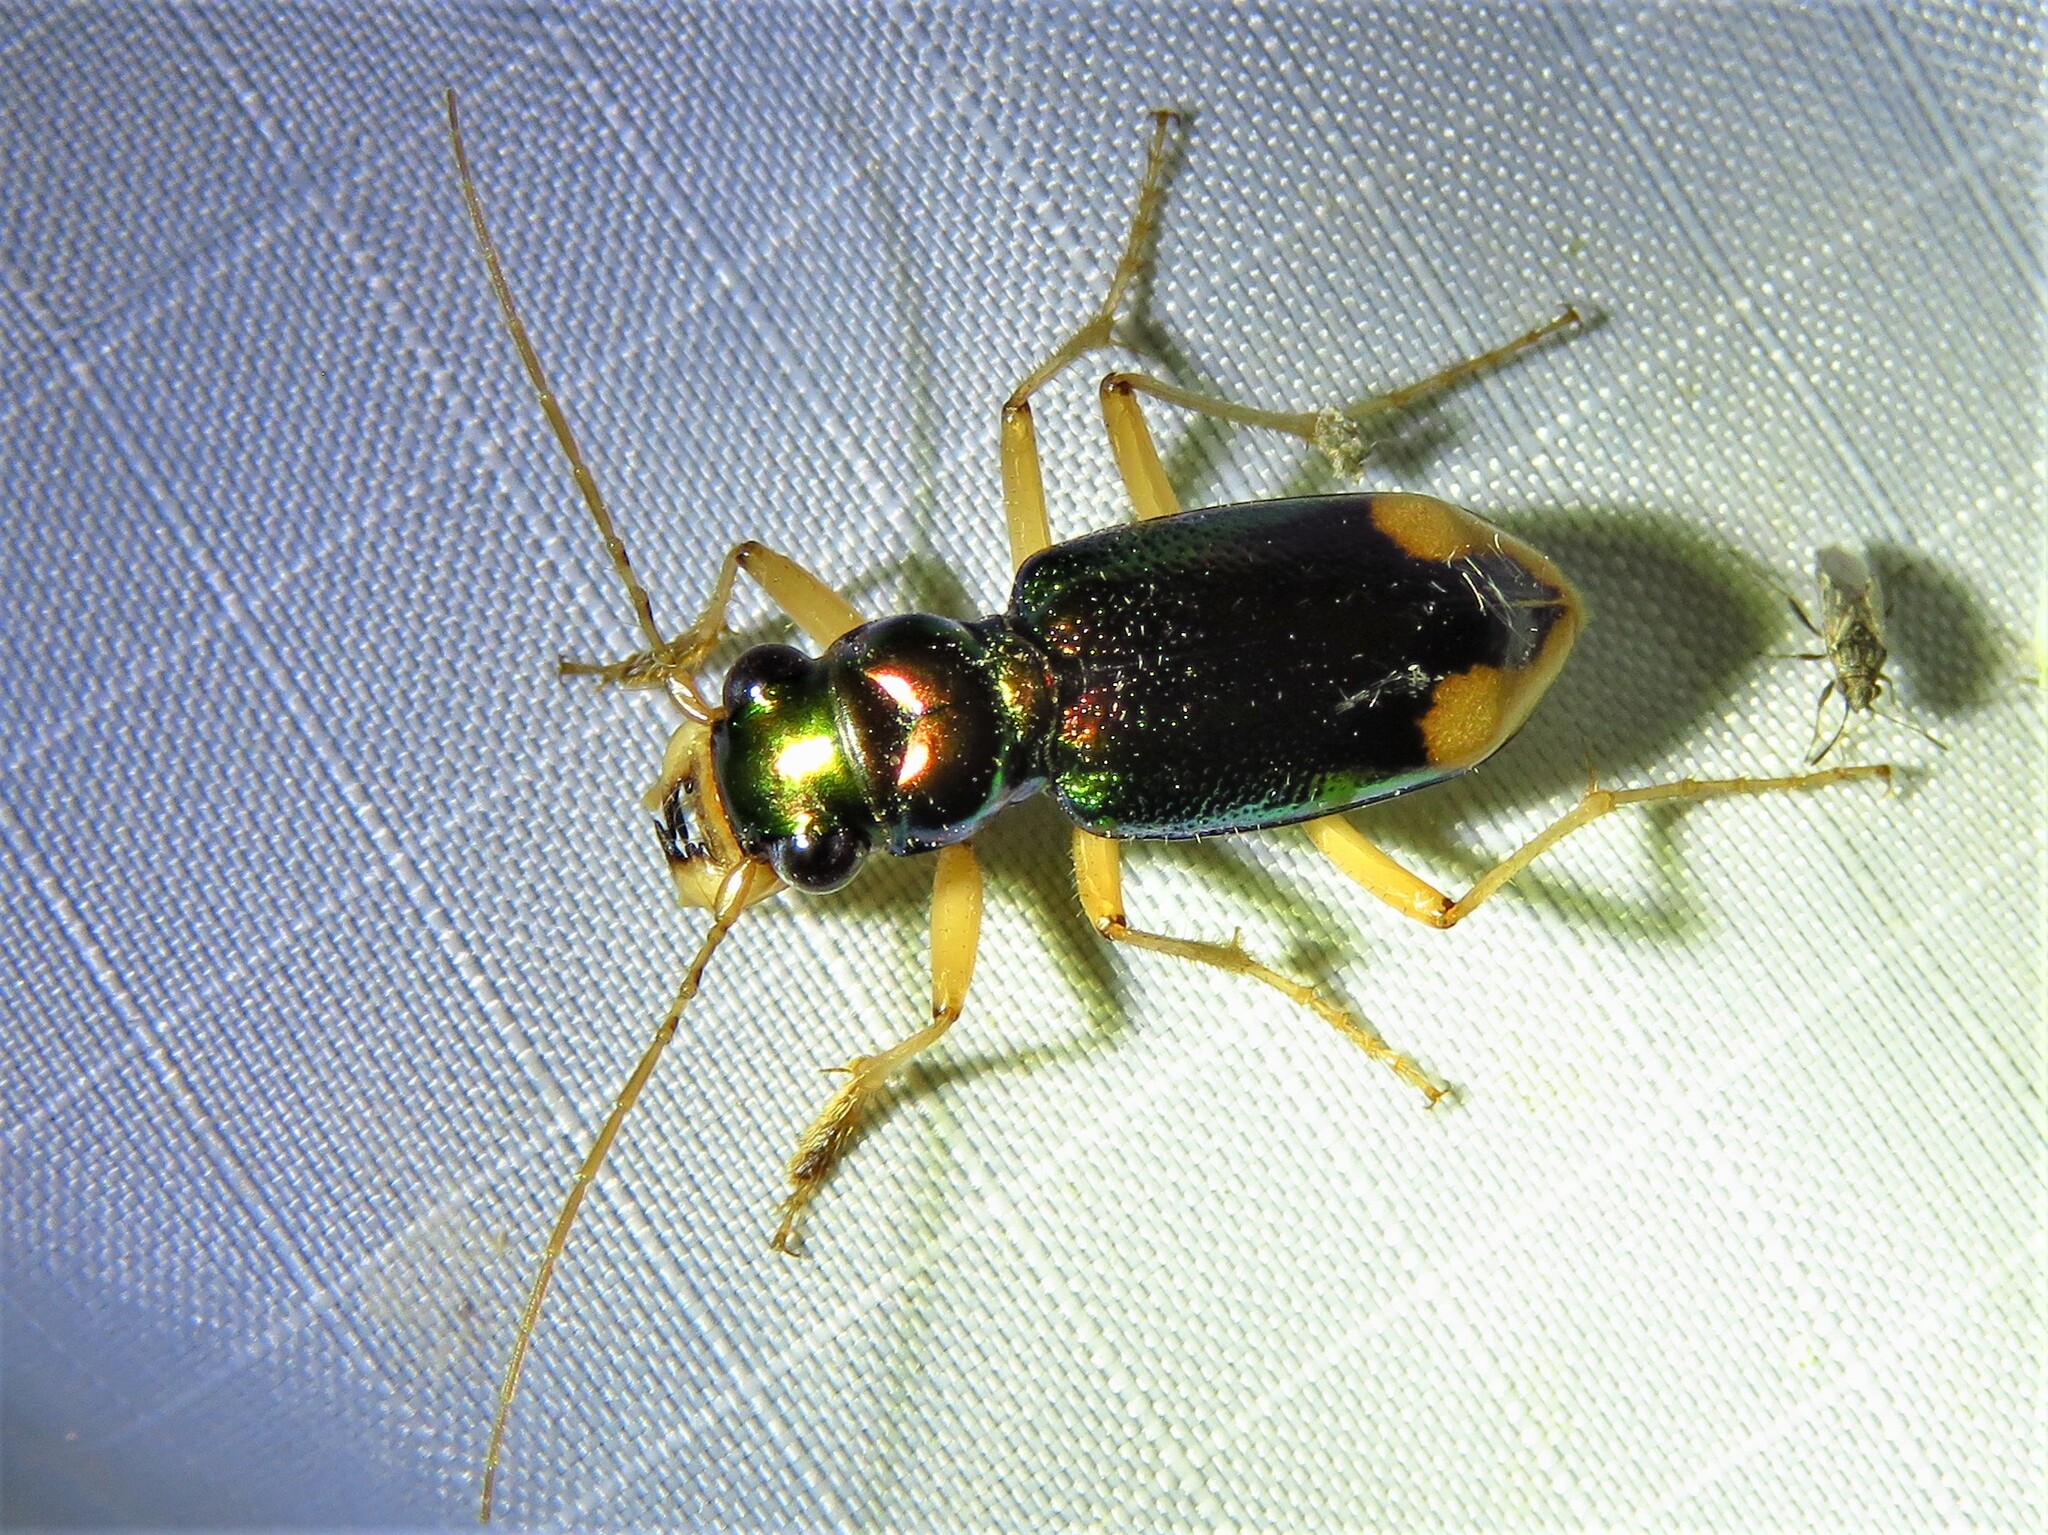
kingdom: Animalia
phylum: Arthropoda
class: Insecta
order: Coleoptera
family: Carabidae
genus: Tetracha
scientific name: Tetracha carolina
